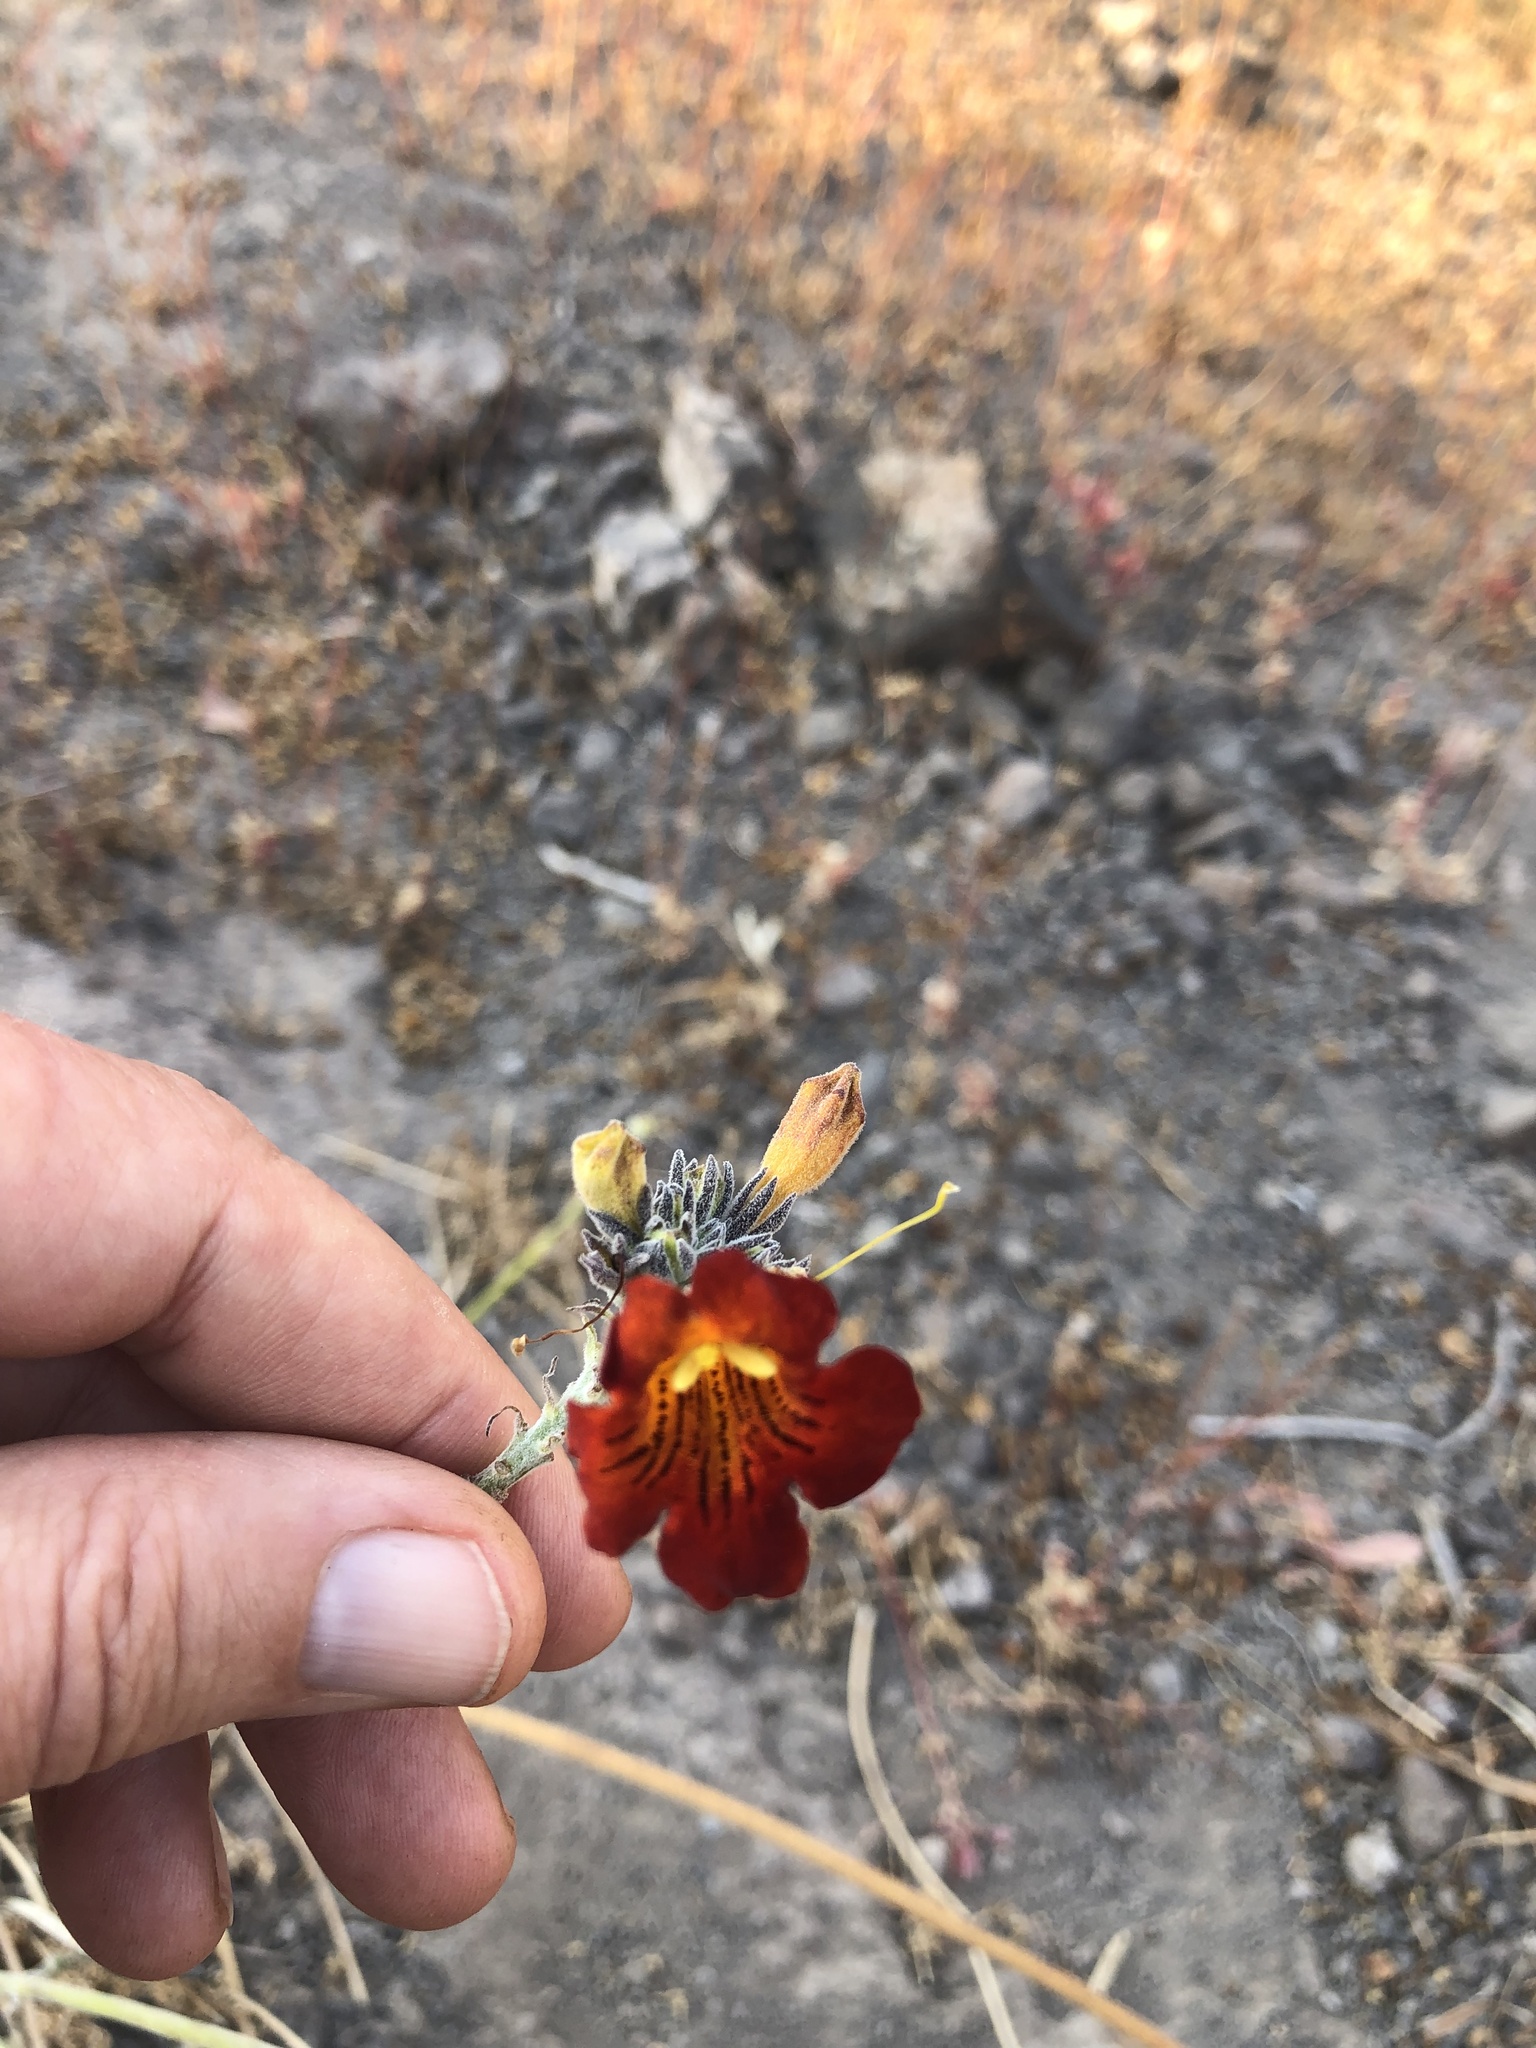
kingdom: Plantae
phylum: Tracheophyta
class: Magnoliopsida
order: Lamiales
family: Bignoniaceae
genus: Argylia
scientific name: Argylia radiata
